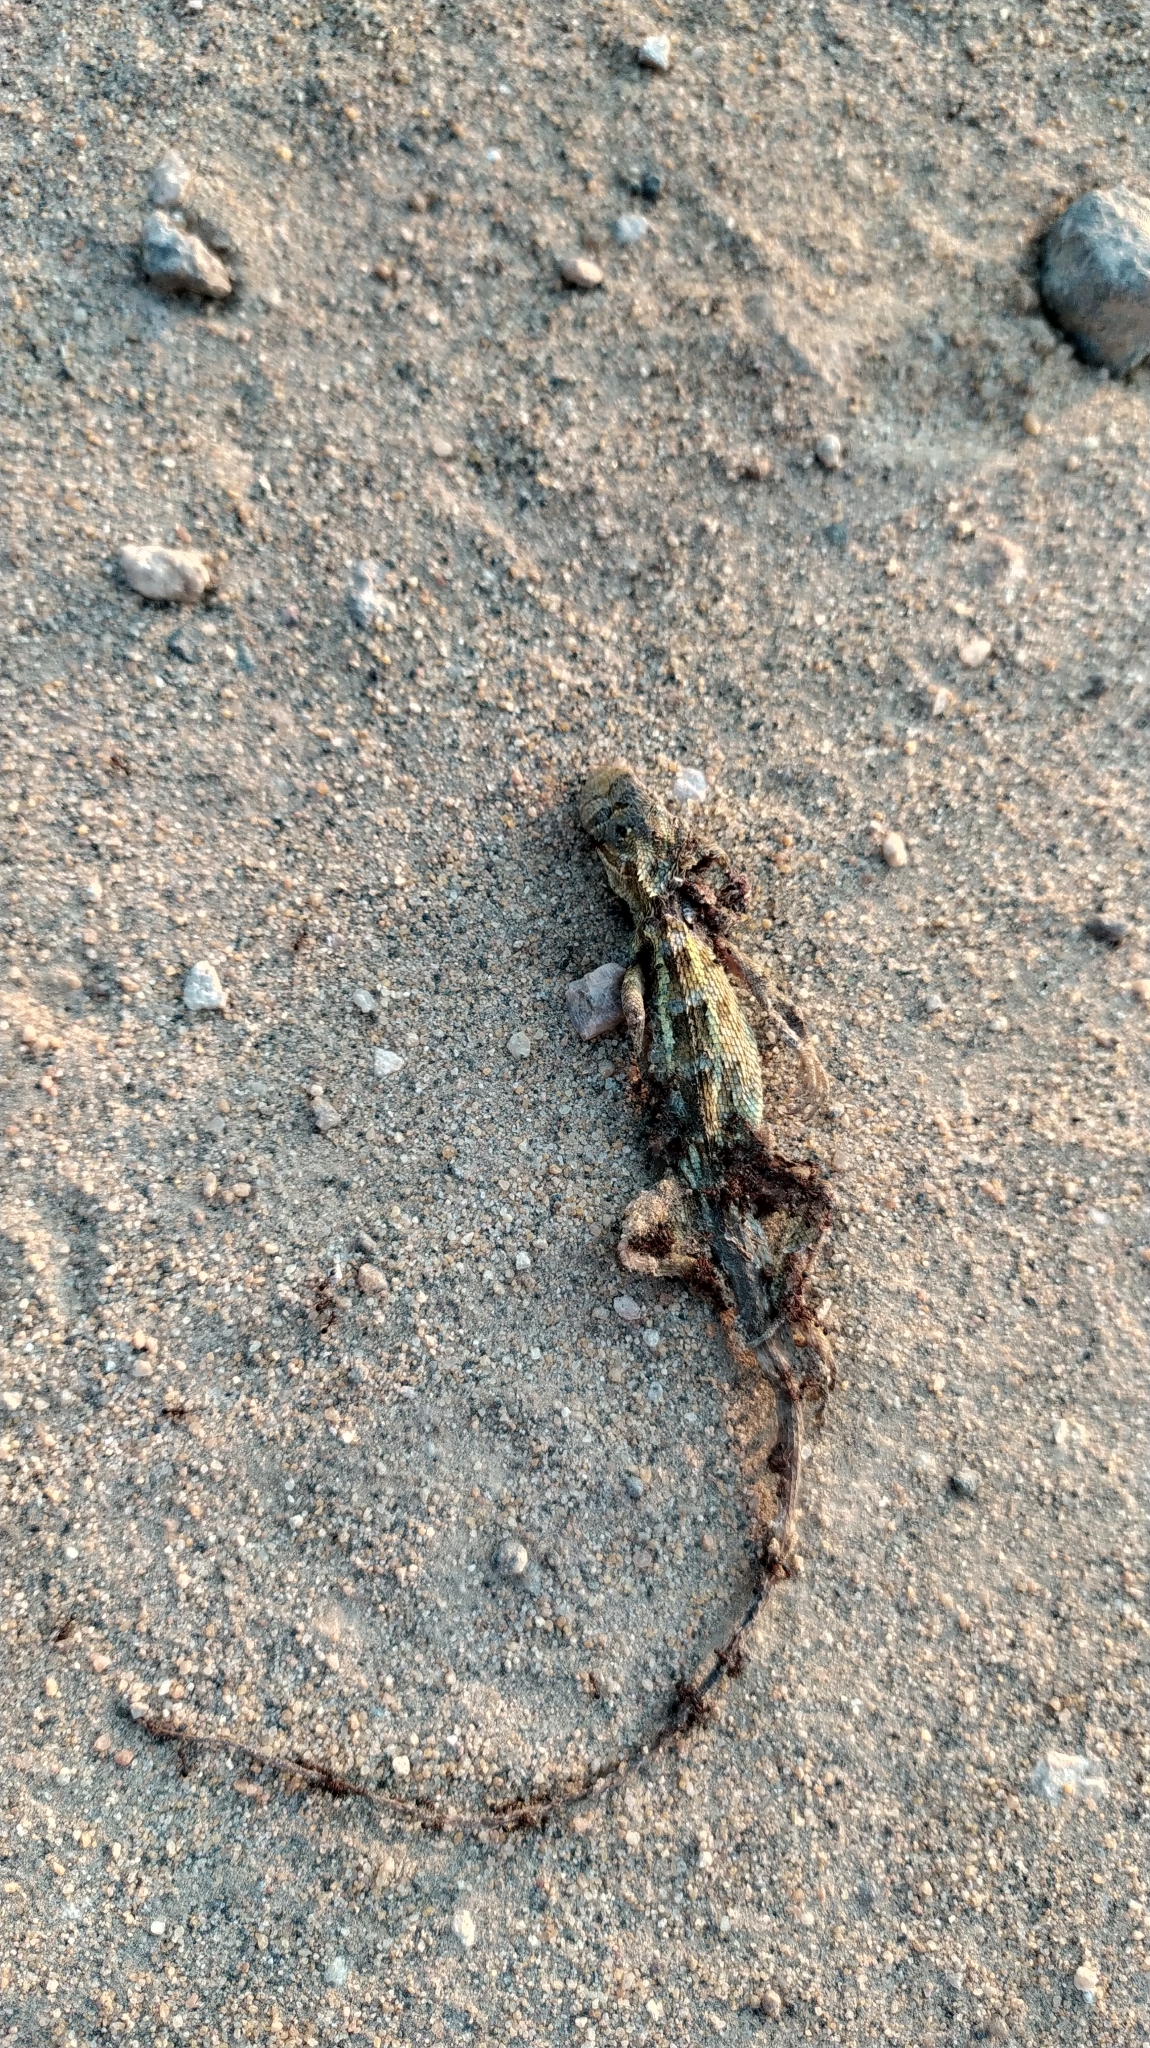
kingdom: Animalia
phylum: Chordata
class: Squamata
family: Agamidae
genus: Calotes
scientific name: Calotes versicolor
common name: Oriental garden lizard
